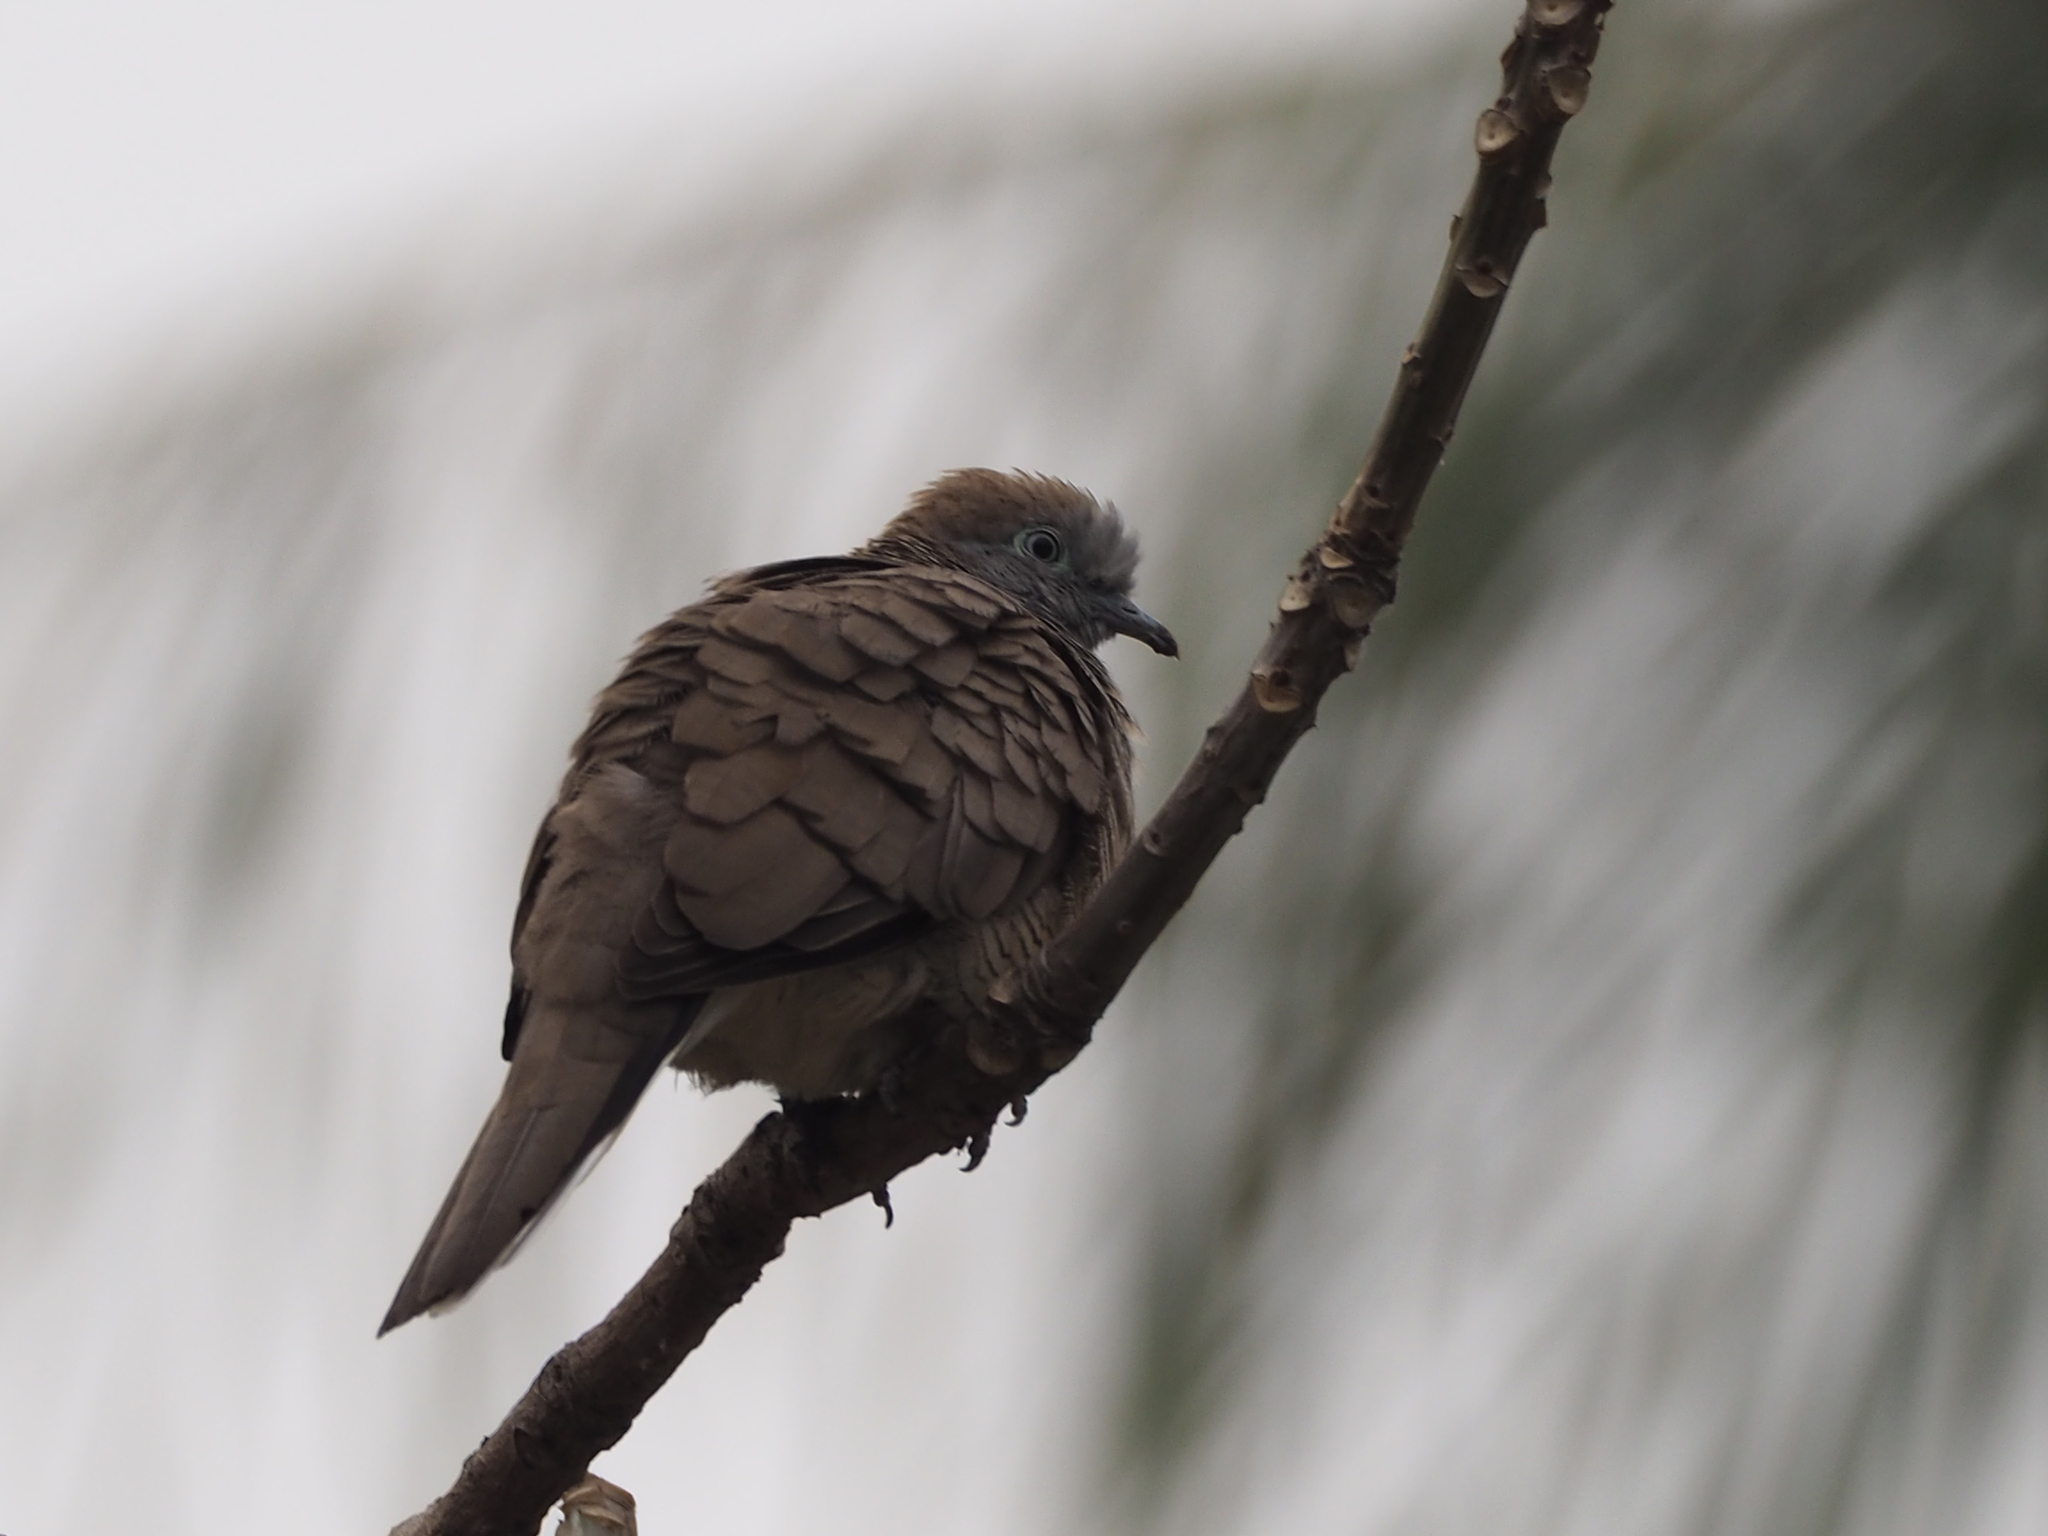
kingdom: Animalia
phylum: Chordata
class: Aves
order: Columbiformes
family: Columbidae
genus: Geopelia
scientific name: Geopelia striata
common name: Zebra dove
